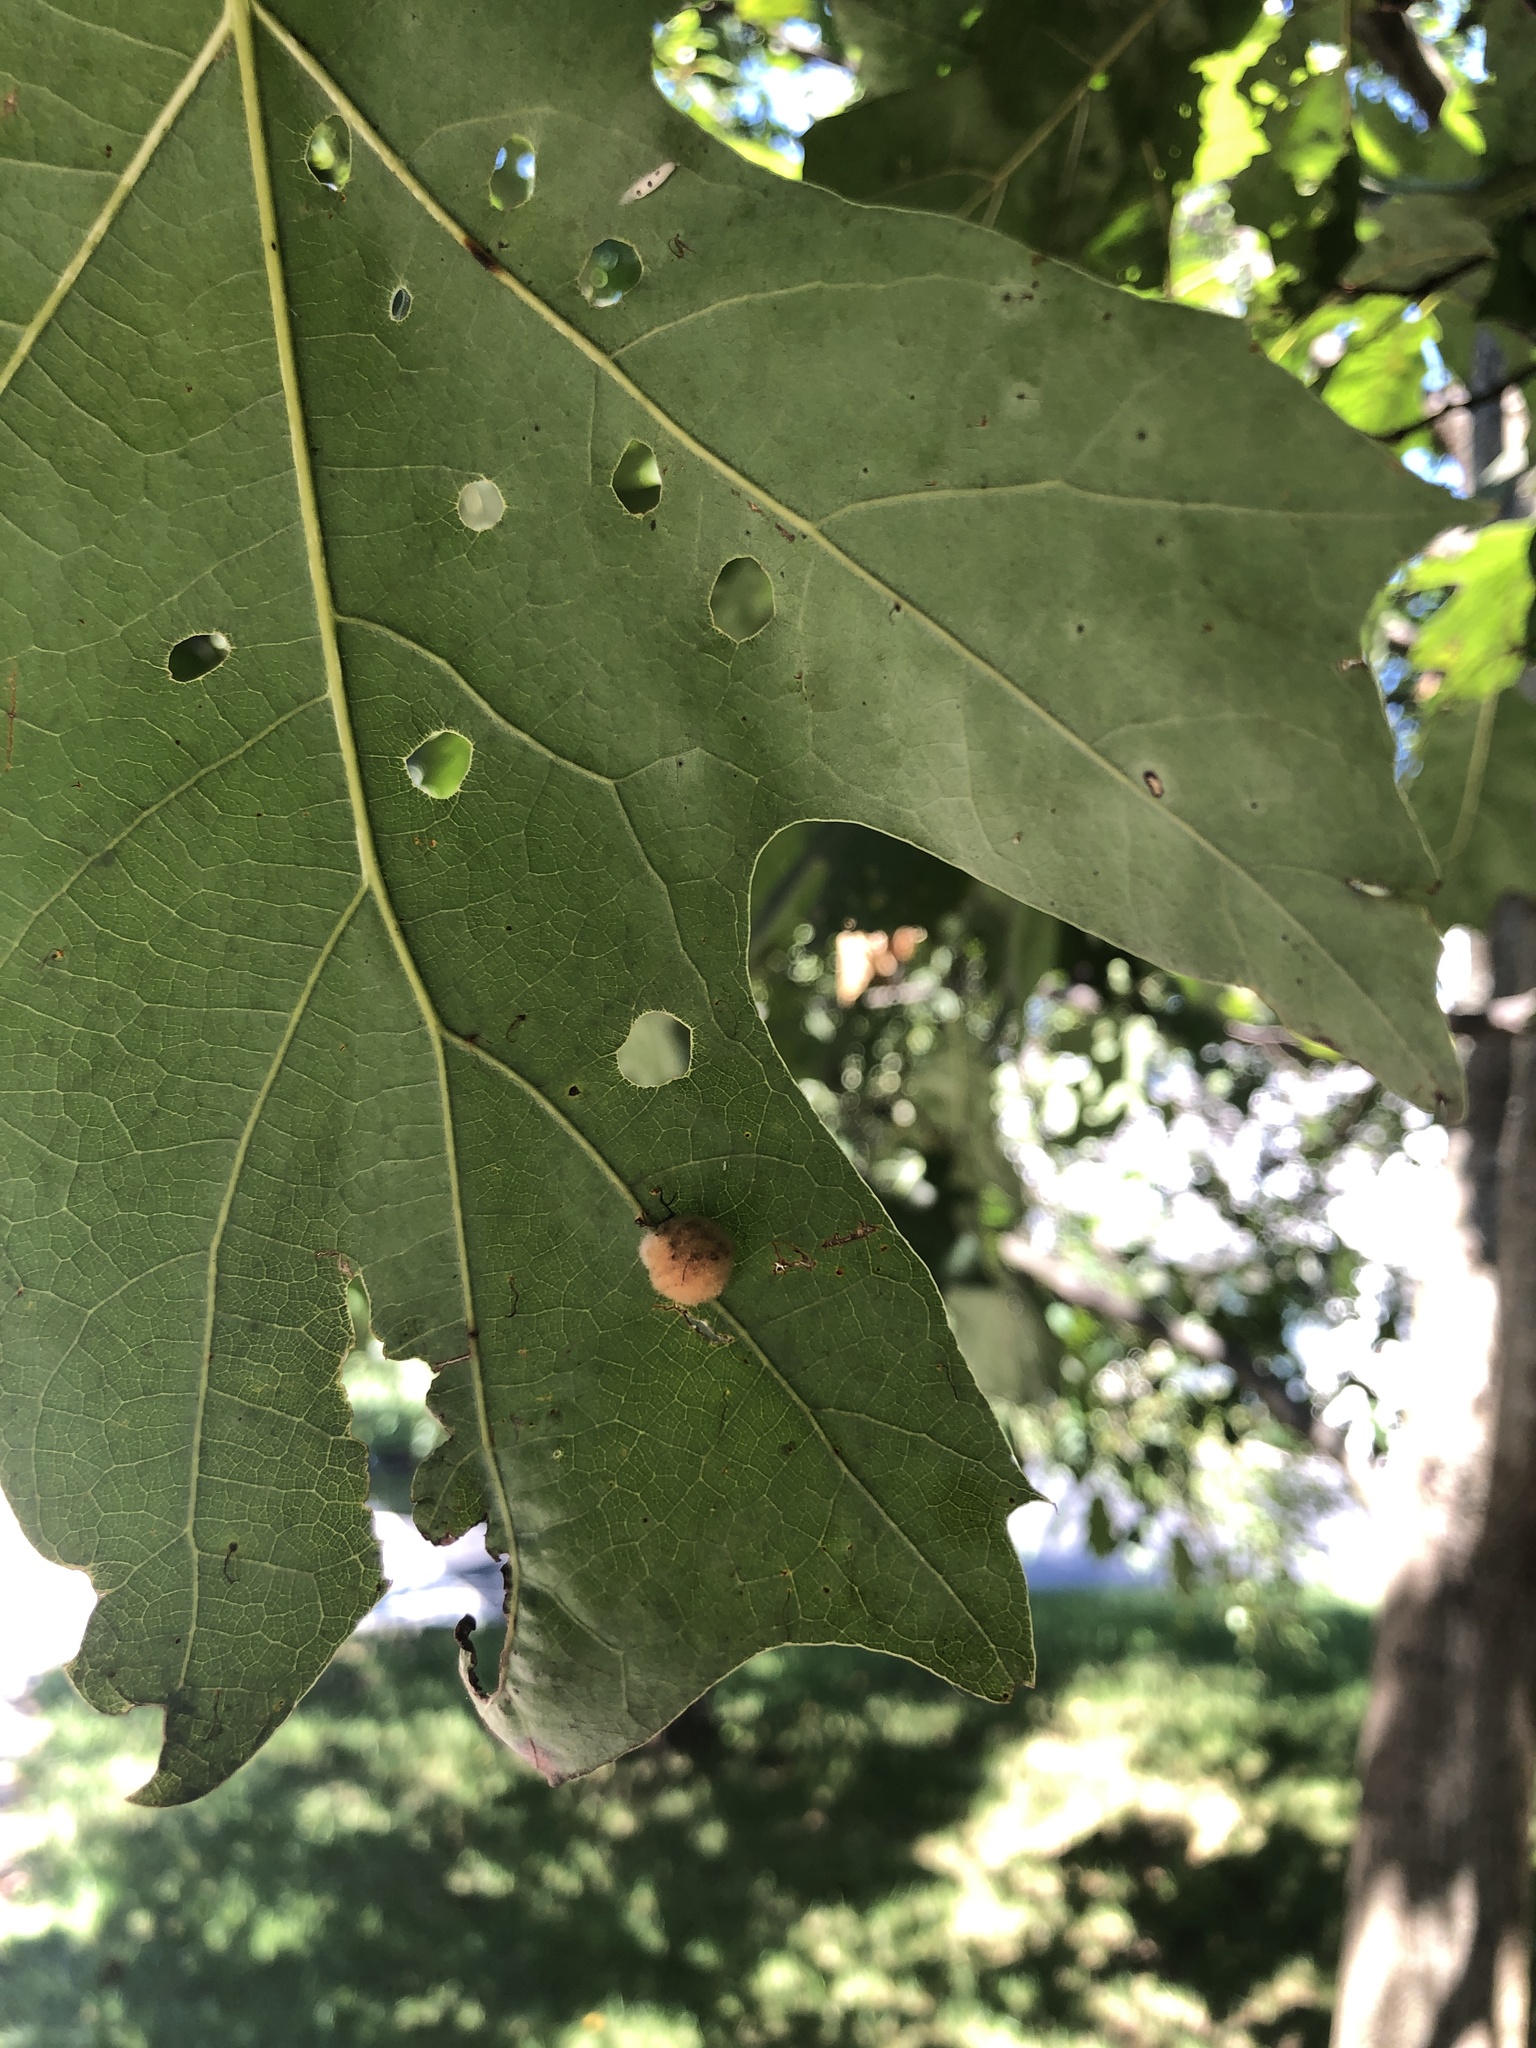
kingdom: Animalia
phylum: Arthropoda
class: Insecta
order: Hymenoptera
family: Cynipidae
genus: Callirhytis
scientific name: Callirhytis
